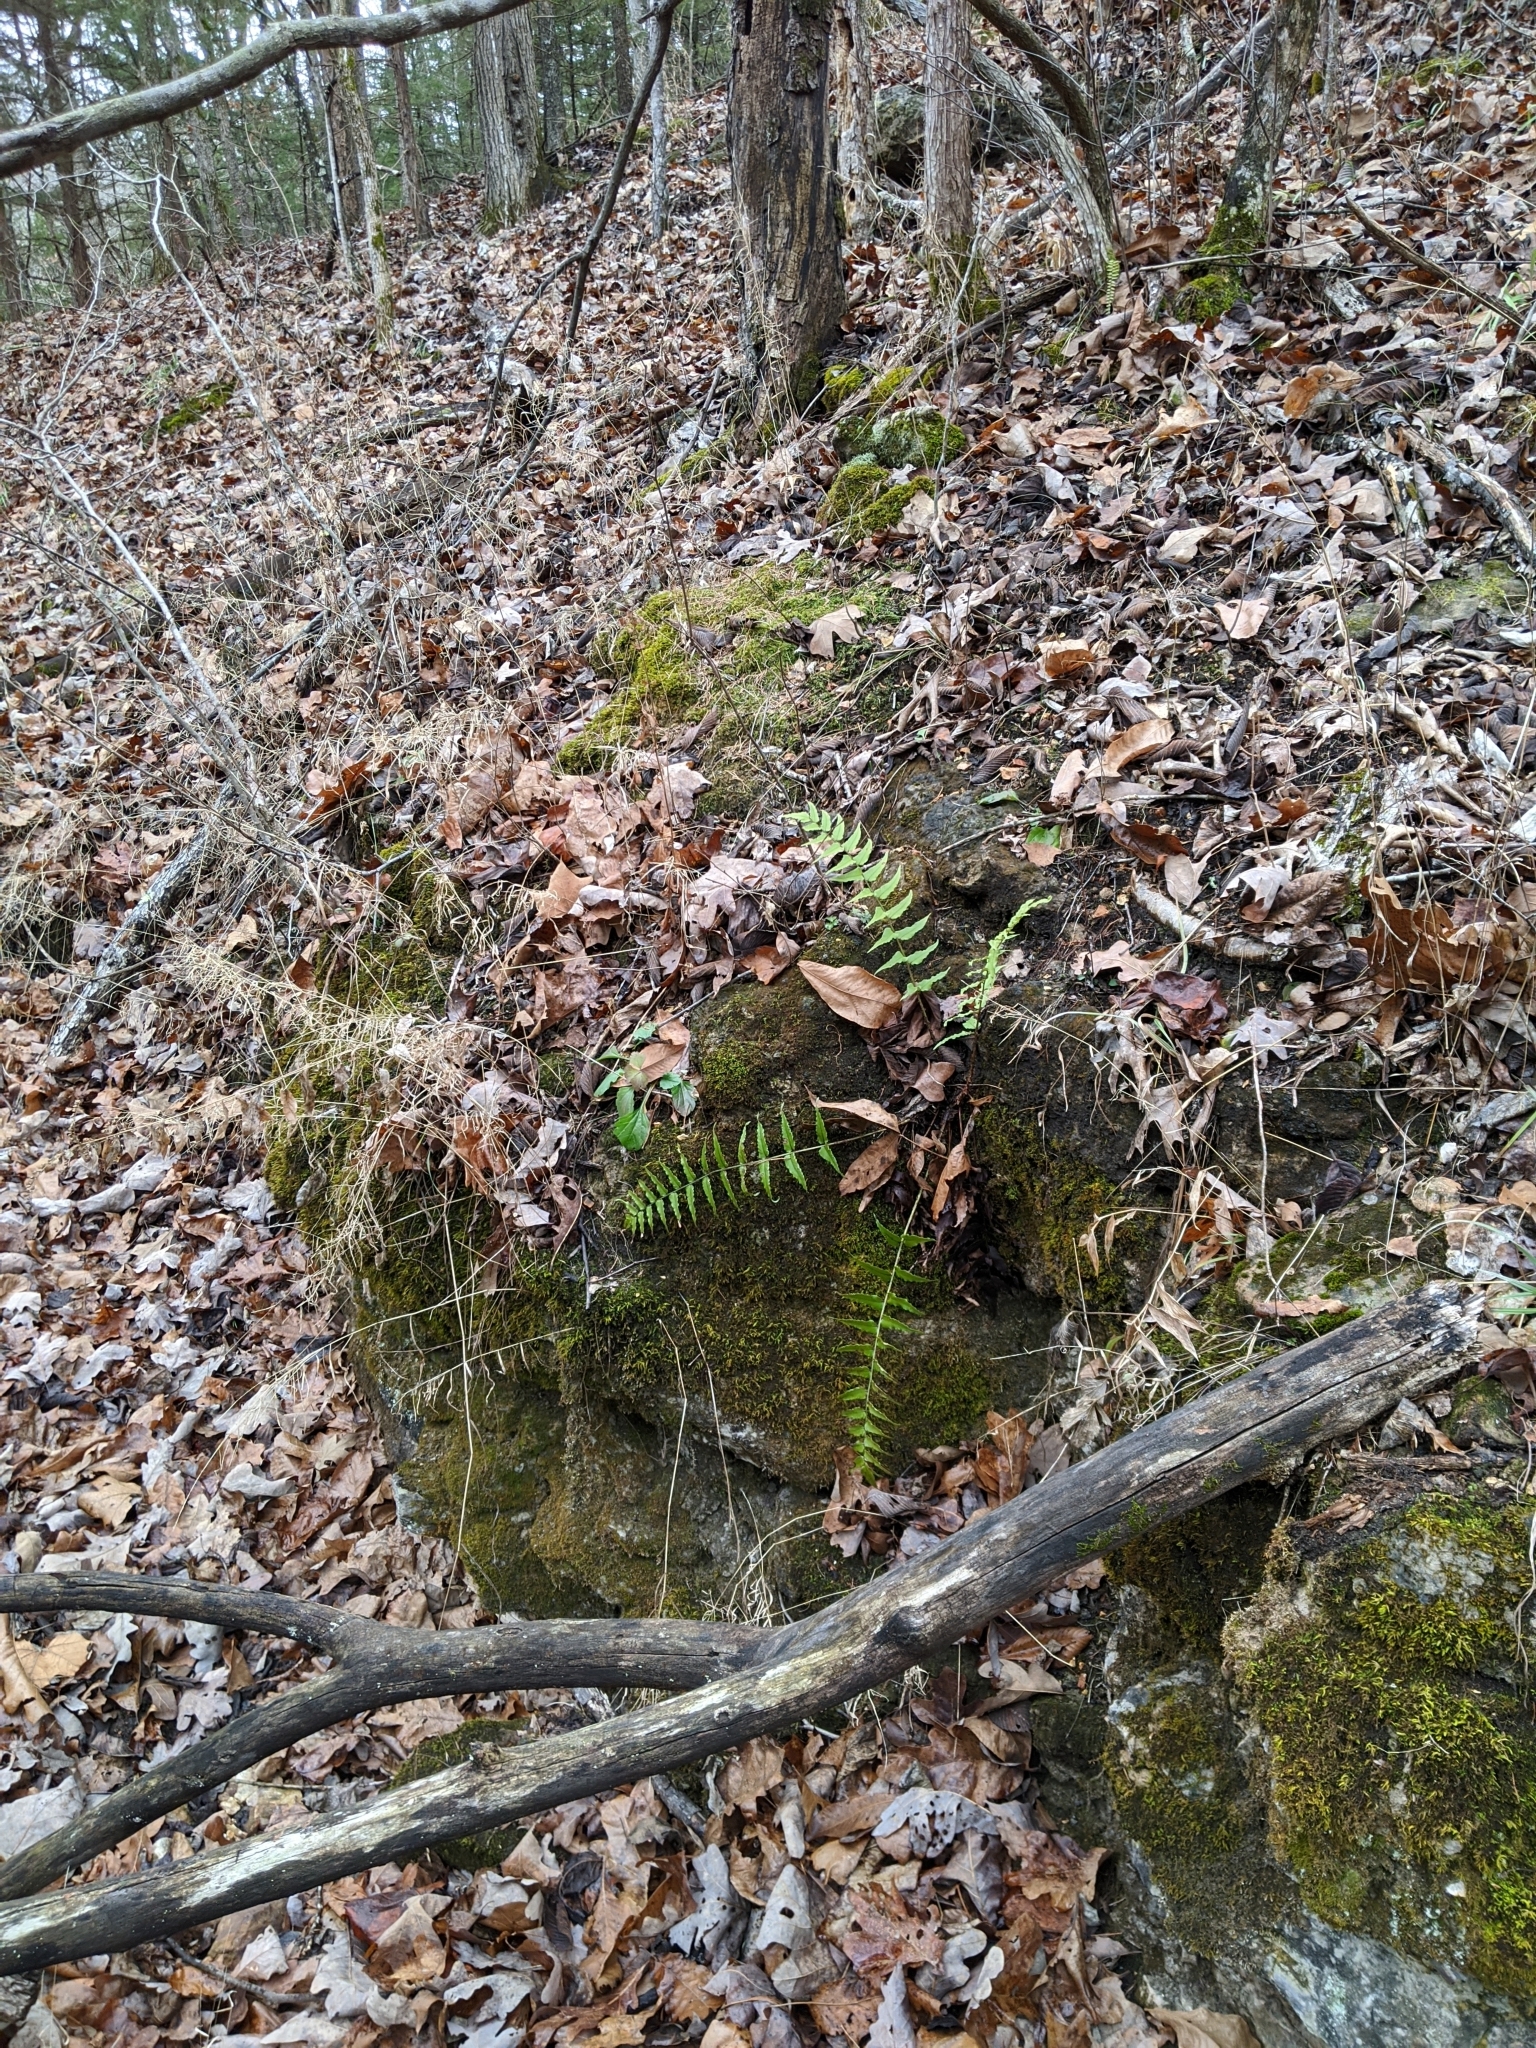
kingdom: Plantae
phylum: Tracheophyta
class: Polypodiopsida
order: Polypodiales
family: Dryopteridaceae
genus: Cyrtomium
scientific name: Cyrtomium fortunei
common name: Asian netvein hollyfern
